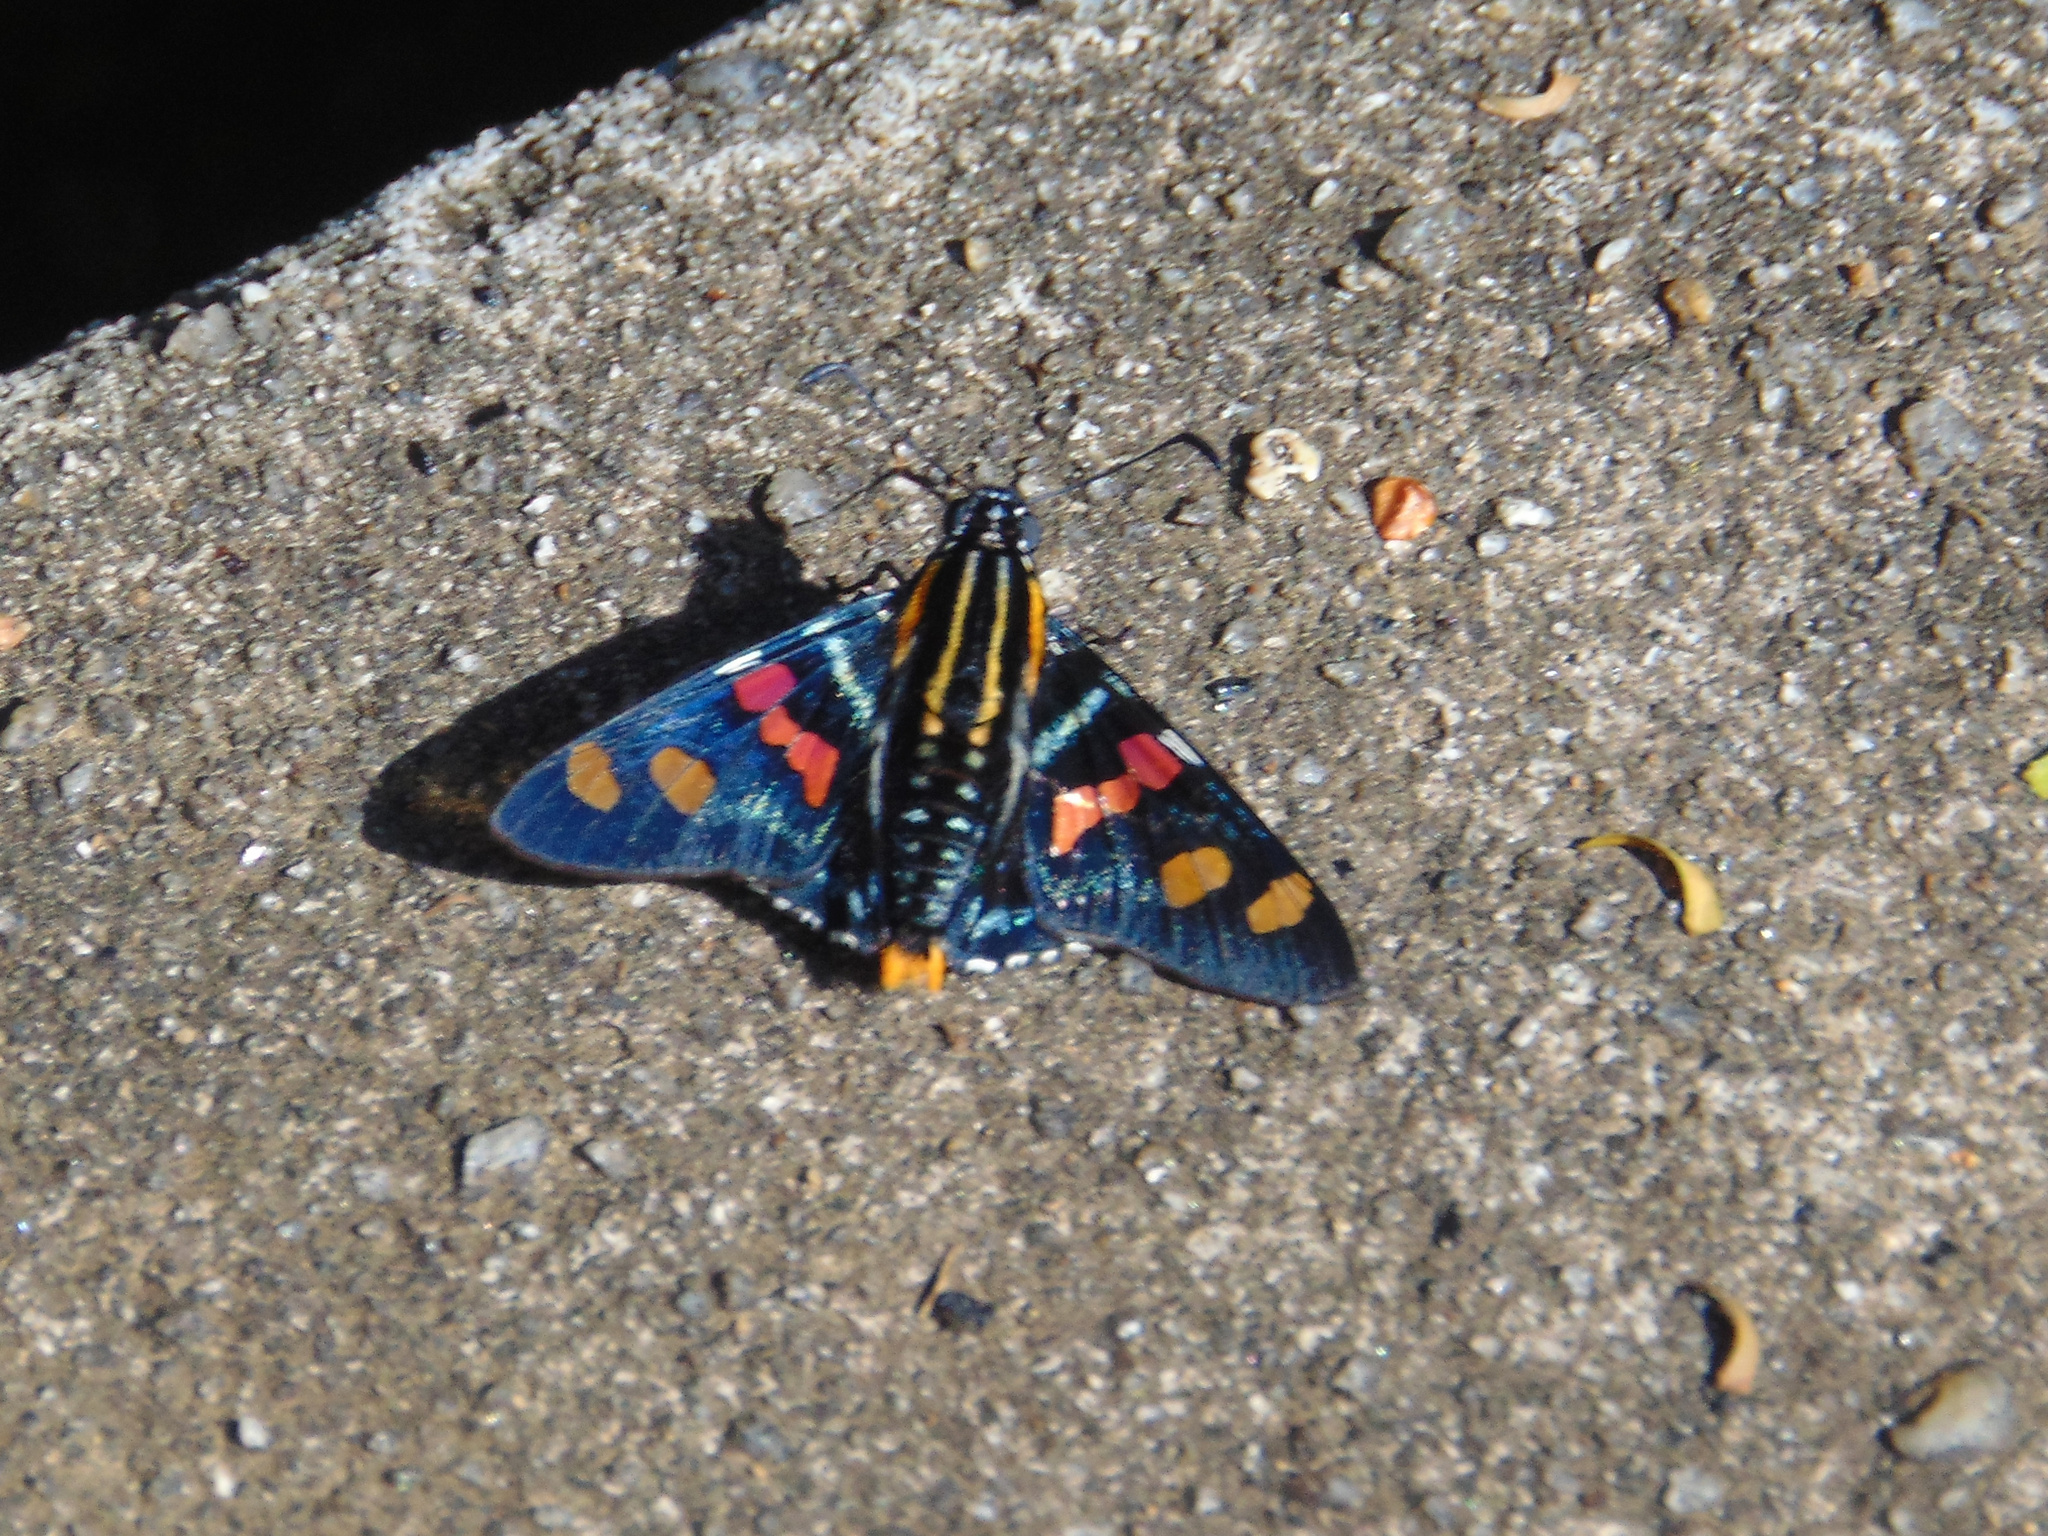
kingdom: Animalia
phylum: Arthropoda
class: Insecta
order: Lepidoptera
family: Hesperiidae
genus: Mimoniades
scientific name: Mimoniades versicolor
